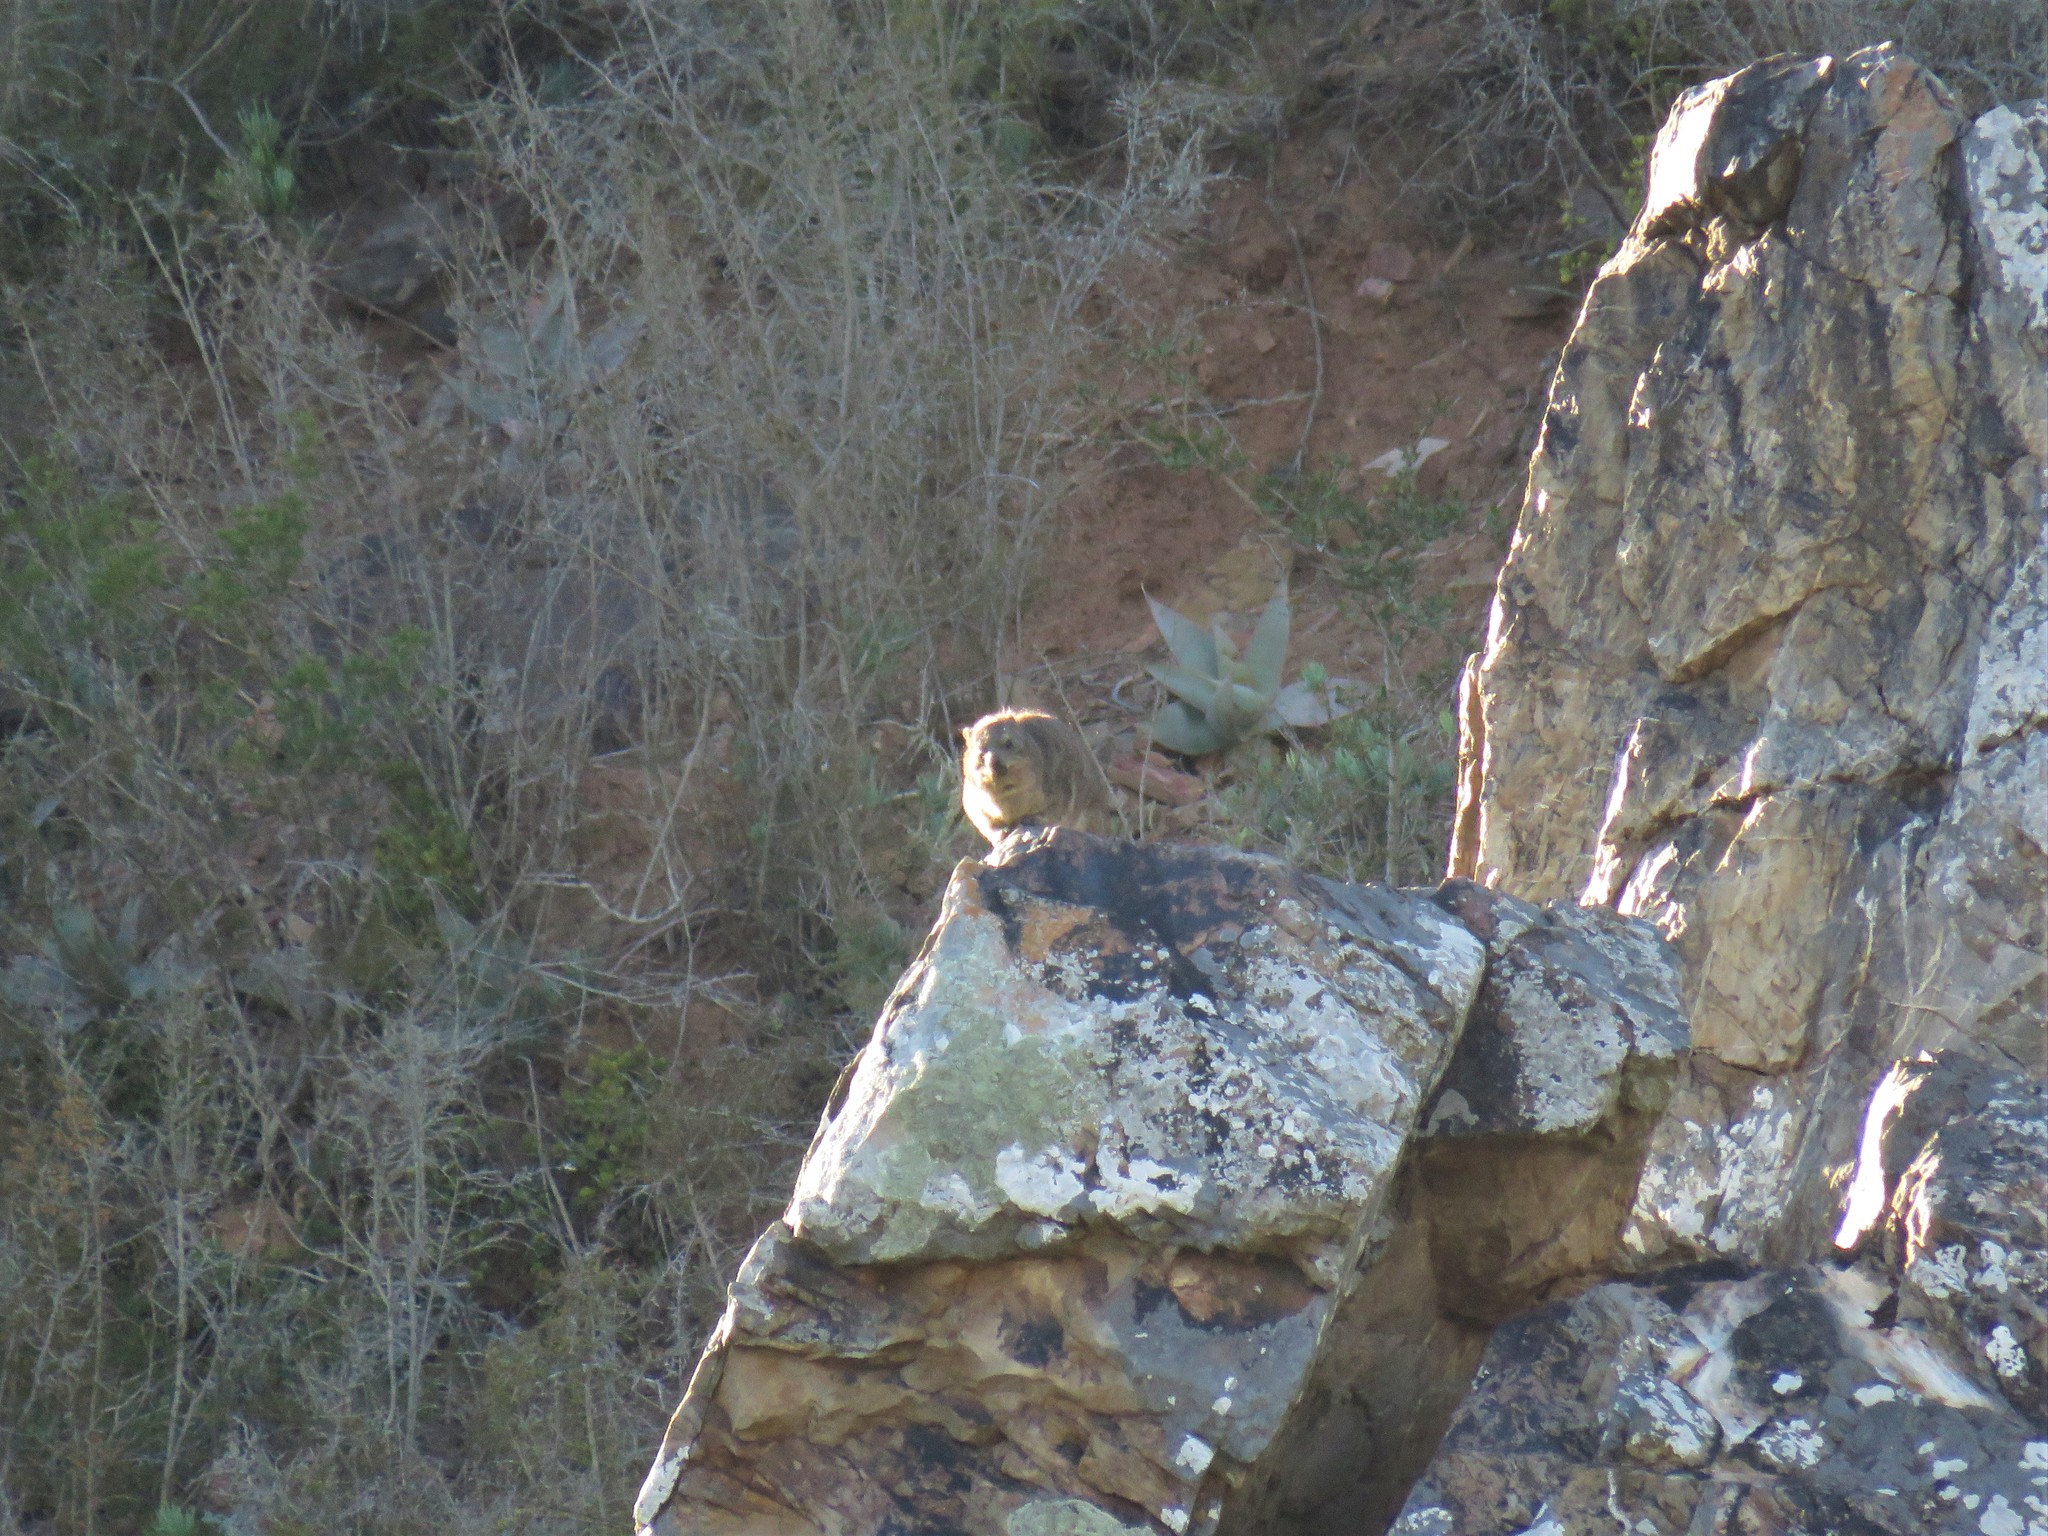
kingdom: Animalia
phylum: Chordata
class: Mammalia
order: Hyracoidea
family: Procaviidae
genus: Procavia
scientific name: Procavia capensis
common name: Rock hyrax
